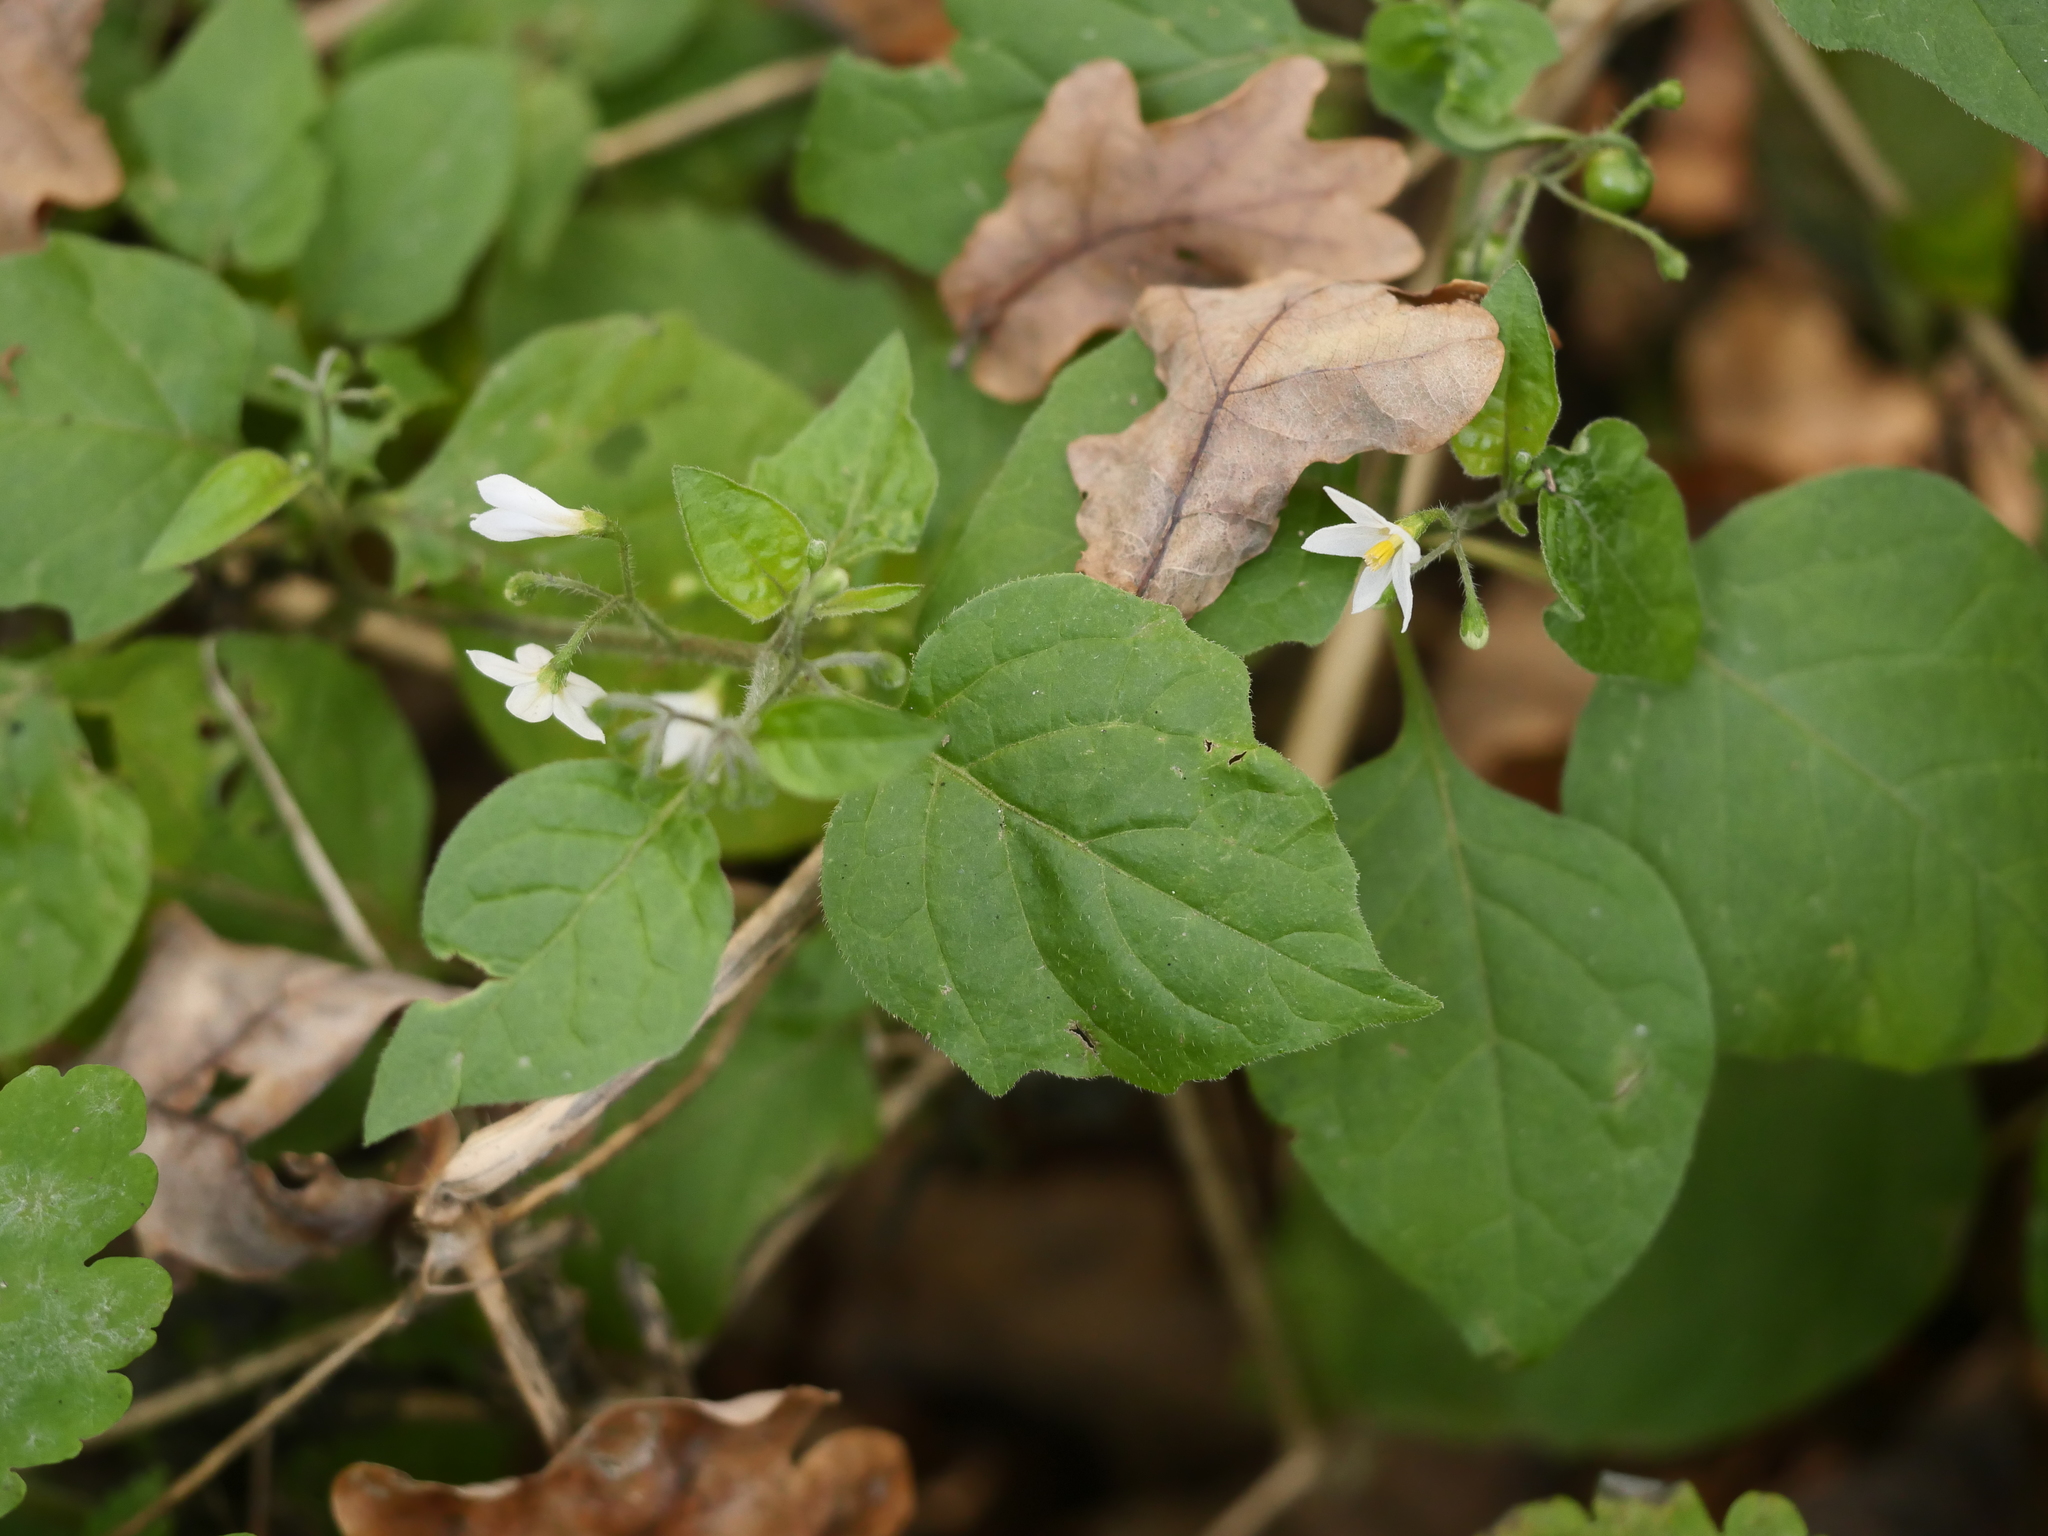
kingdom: Plantae
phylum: Tracheophyta
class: Magnoliopsida
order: Solanales
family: Solanaceae
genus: Solanum
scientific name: Solanum nigrum
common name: Black nightshade
